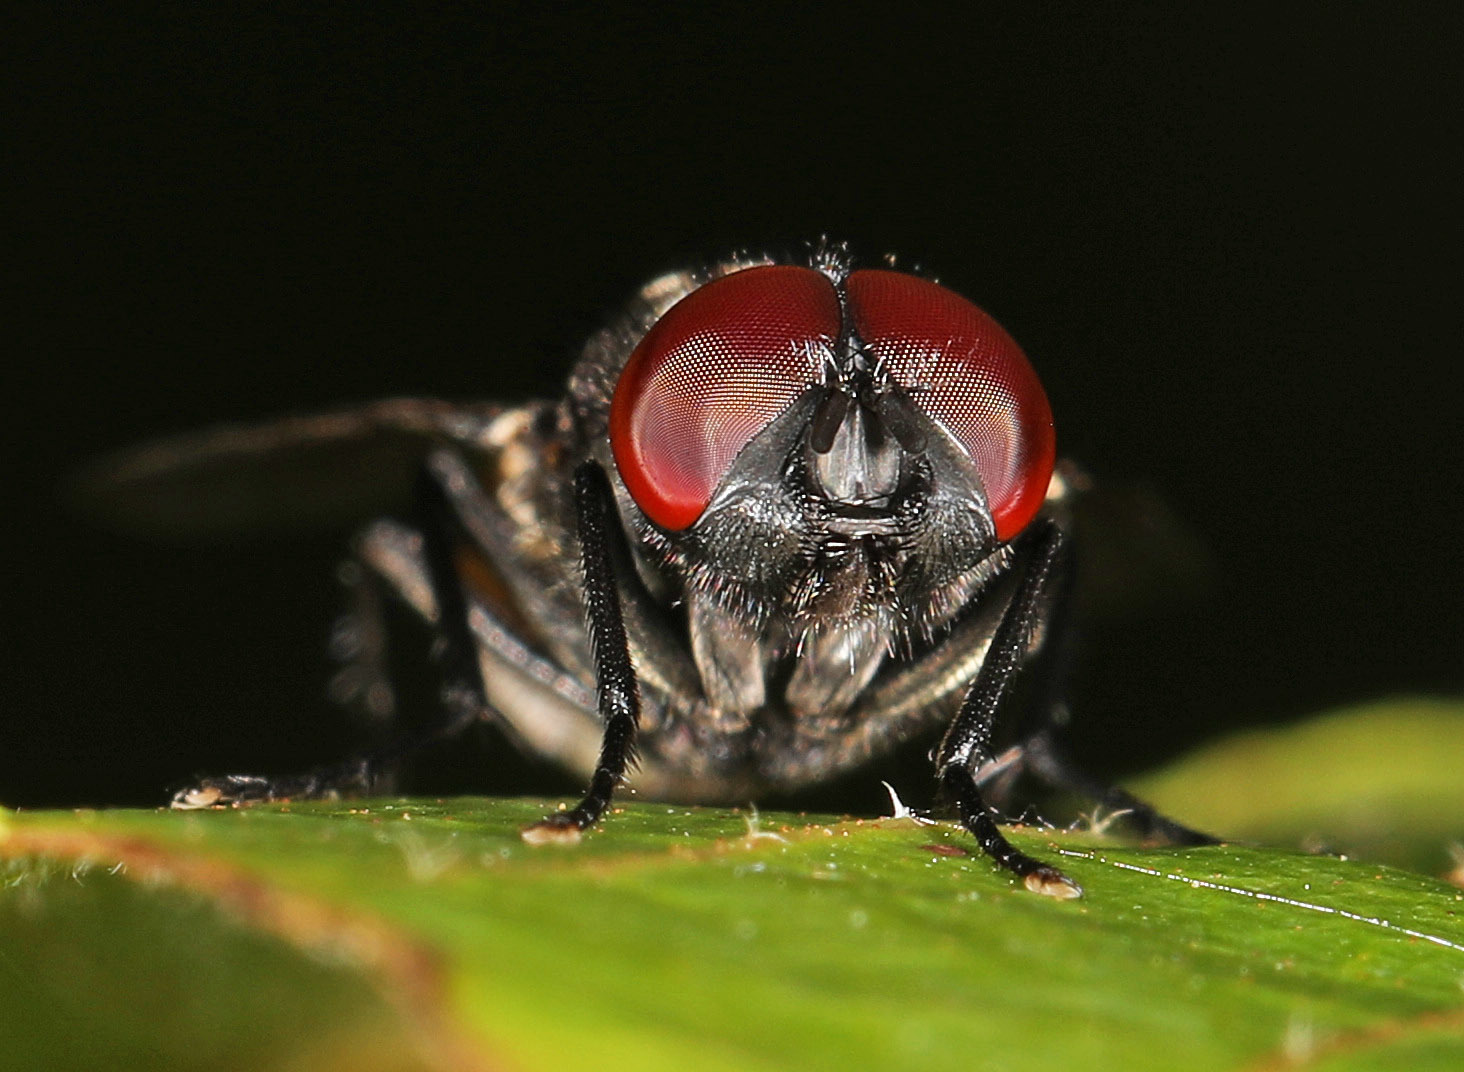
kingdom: Animalia
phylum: Arthropoda
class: Insecta
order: Diptera
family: Muscidae
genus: Musca
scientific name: Musca autumnalis
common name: Face fly
